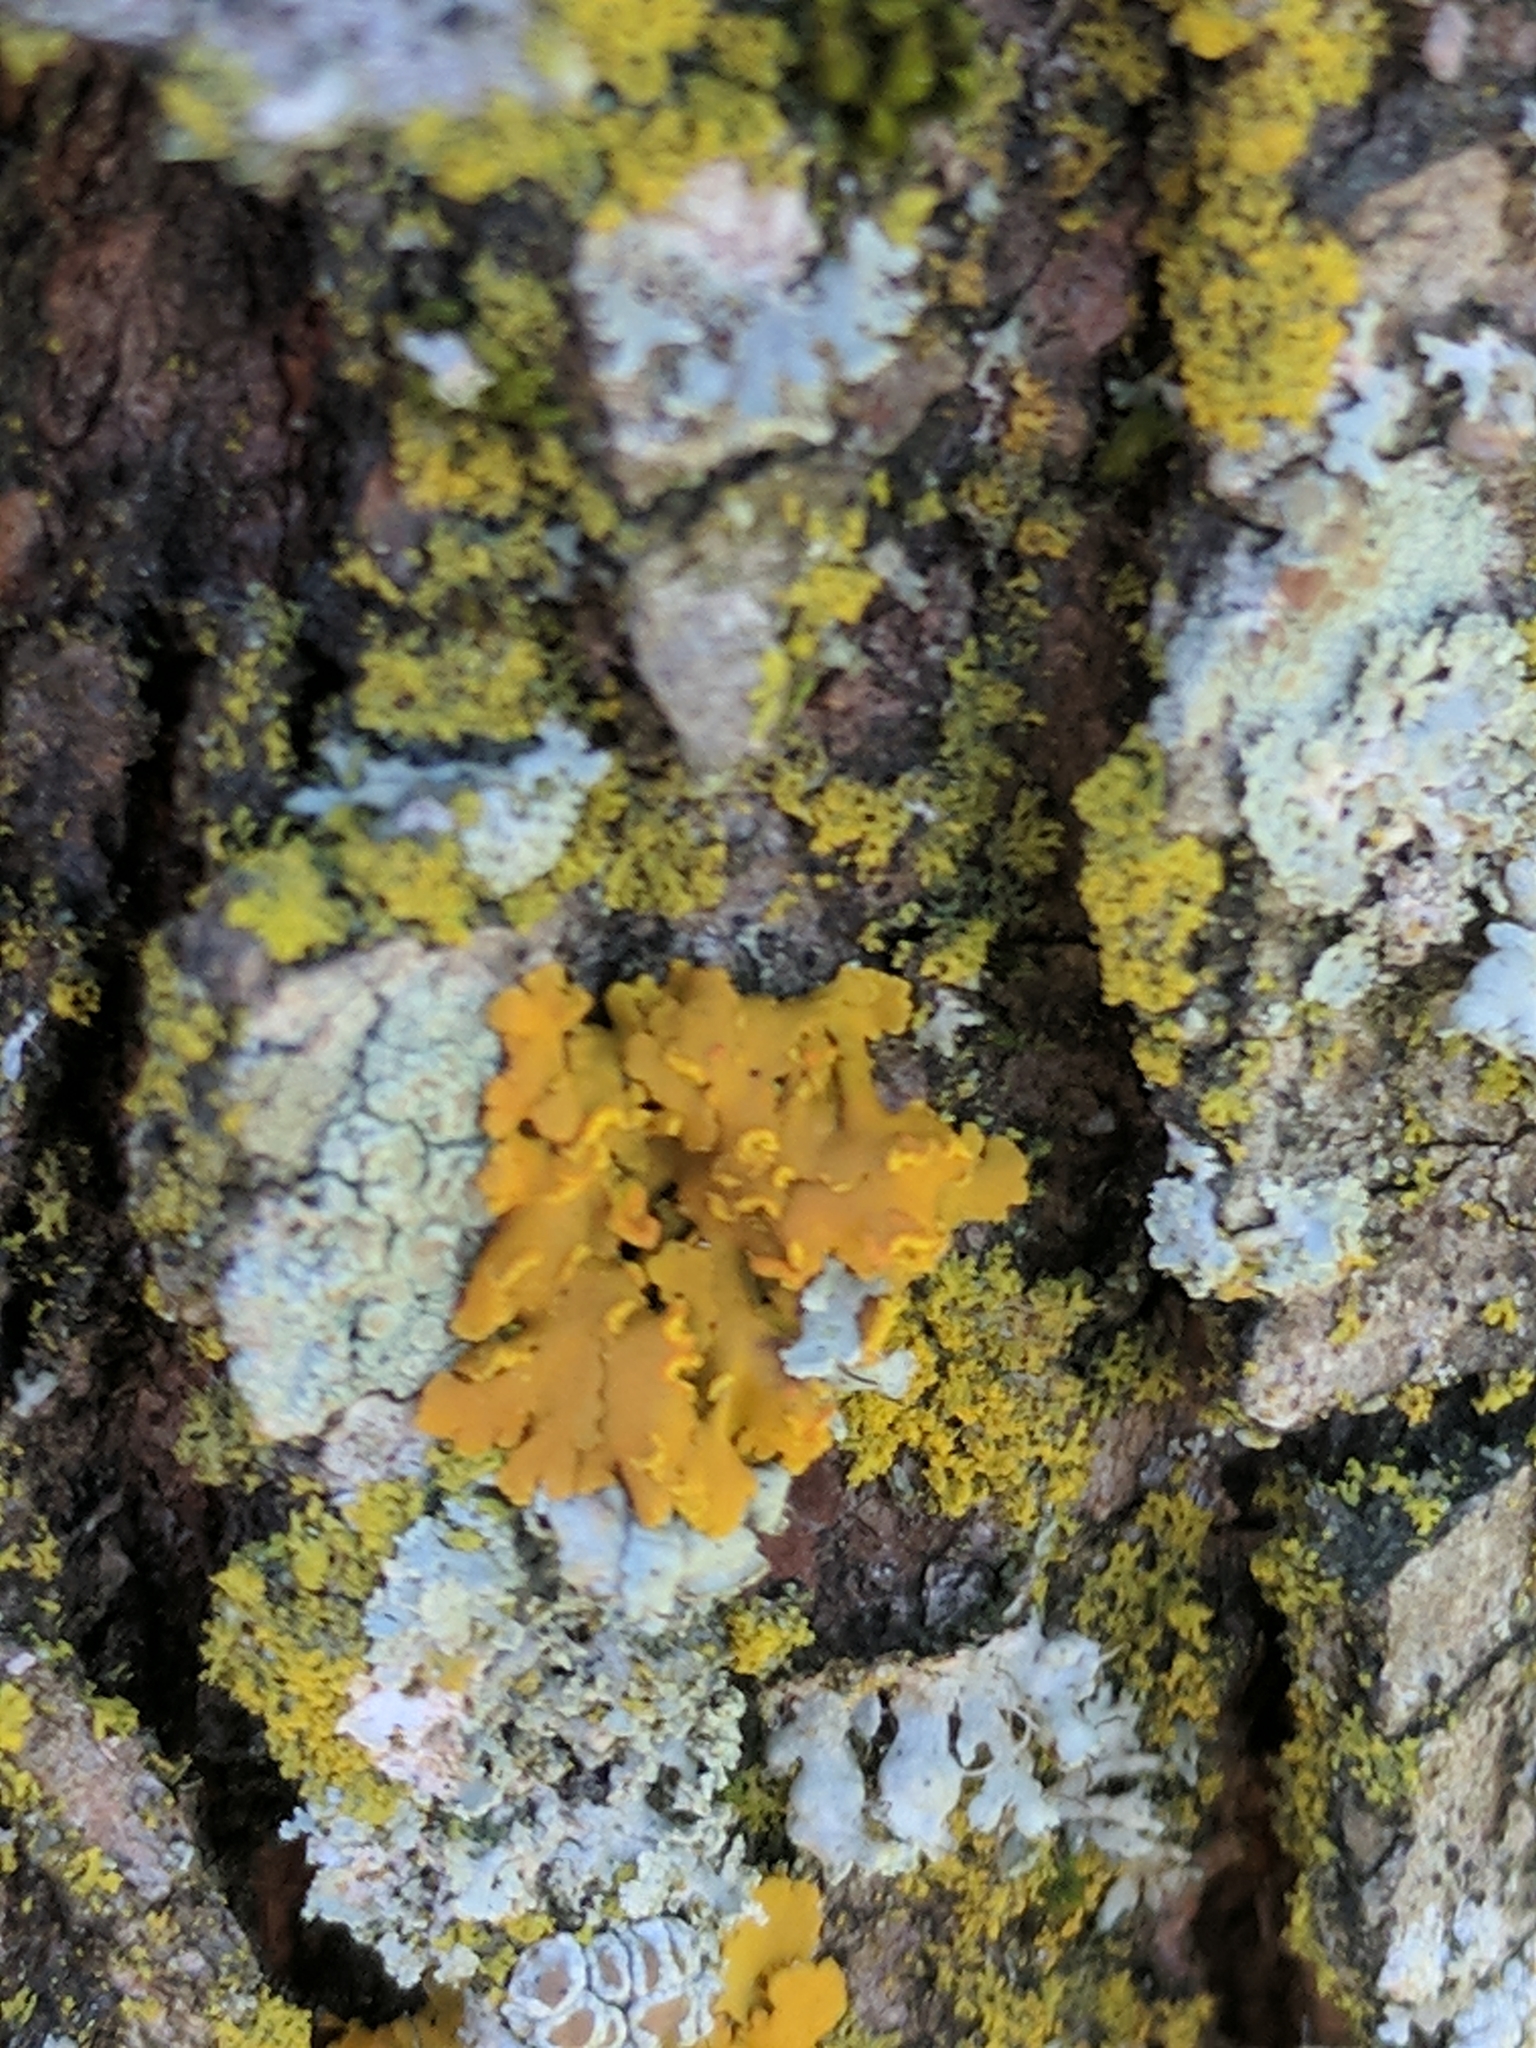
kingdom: Fungi
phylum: Ascomycota
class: Lecanoromycetes
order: Teloschistales
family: Teloschistaceae
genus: Oxneria
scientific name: Oxneria fallax
